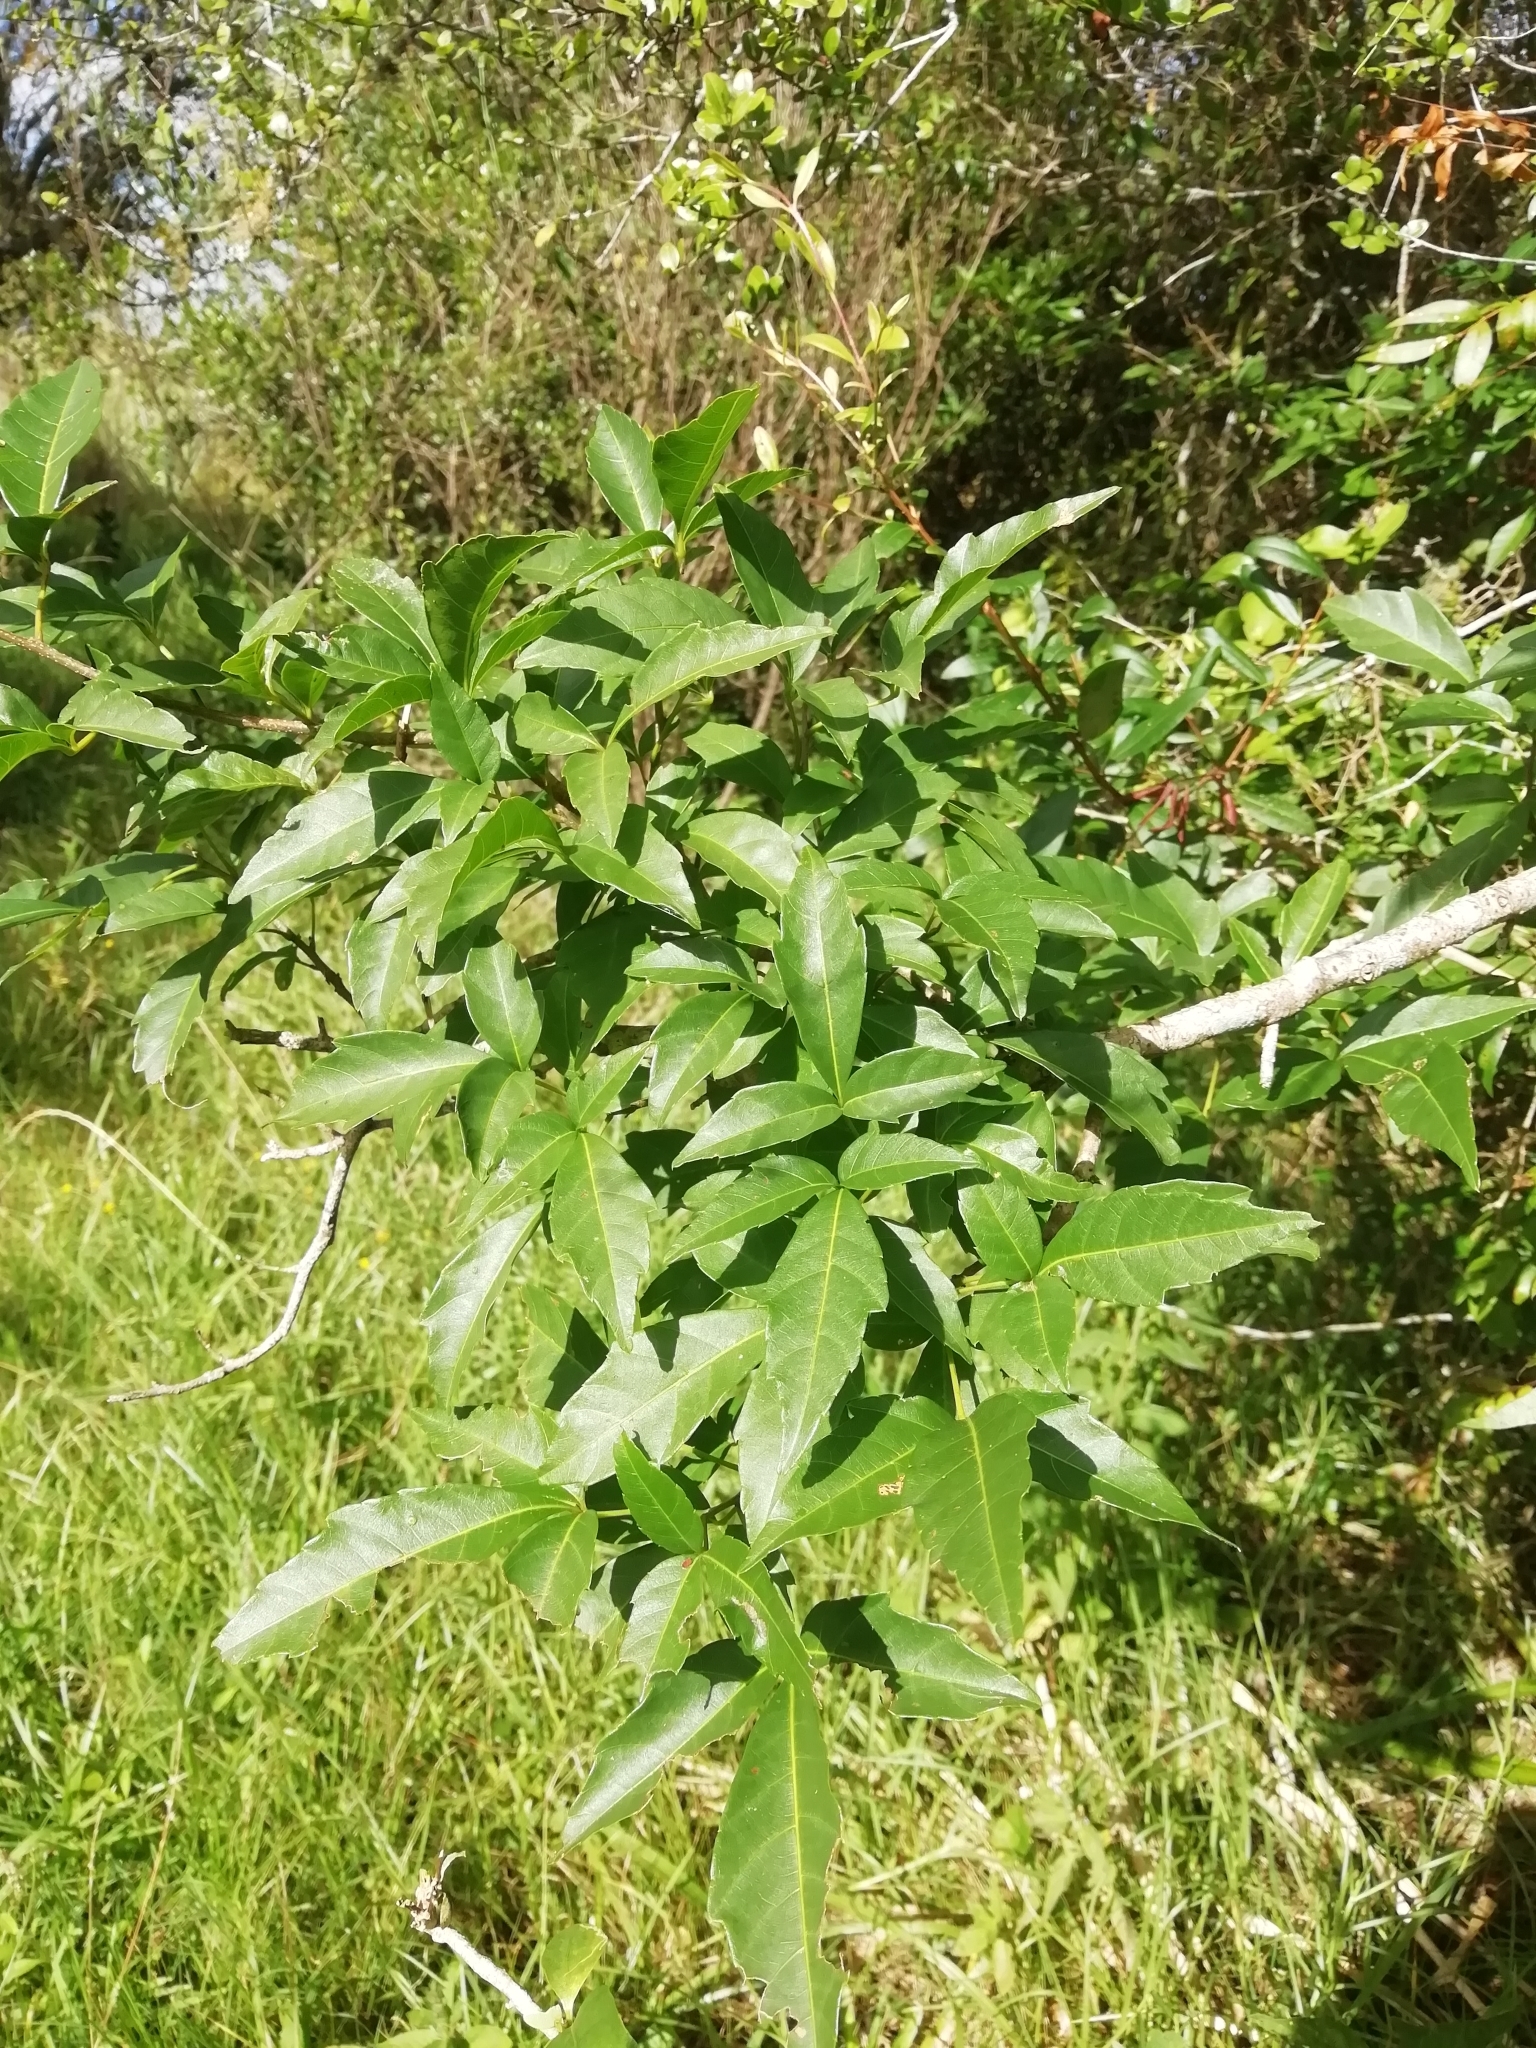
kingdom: Plantae
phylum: Tracheophyta
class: Magnoliopsida
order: Sapindales
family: Sapindaceae
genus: Allophylus
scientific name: Allophylus edulis
